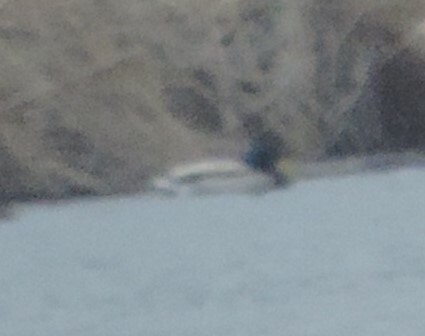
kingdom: Animalia
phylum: Chordata
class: Aves
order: Anseriformes
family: Anatidae
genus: Anas
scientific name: Anas platyrhynchos
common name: Mallard
